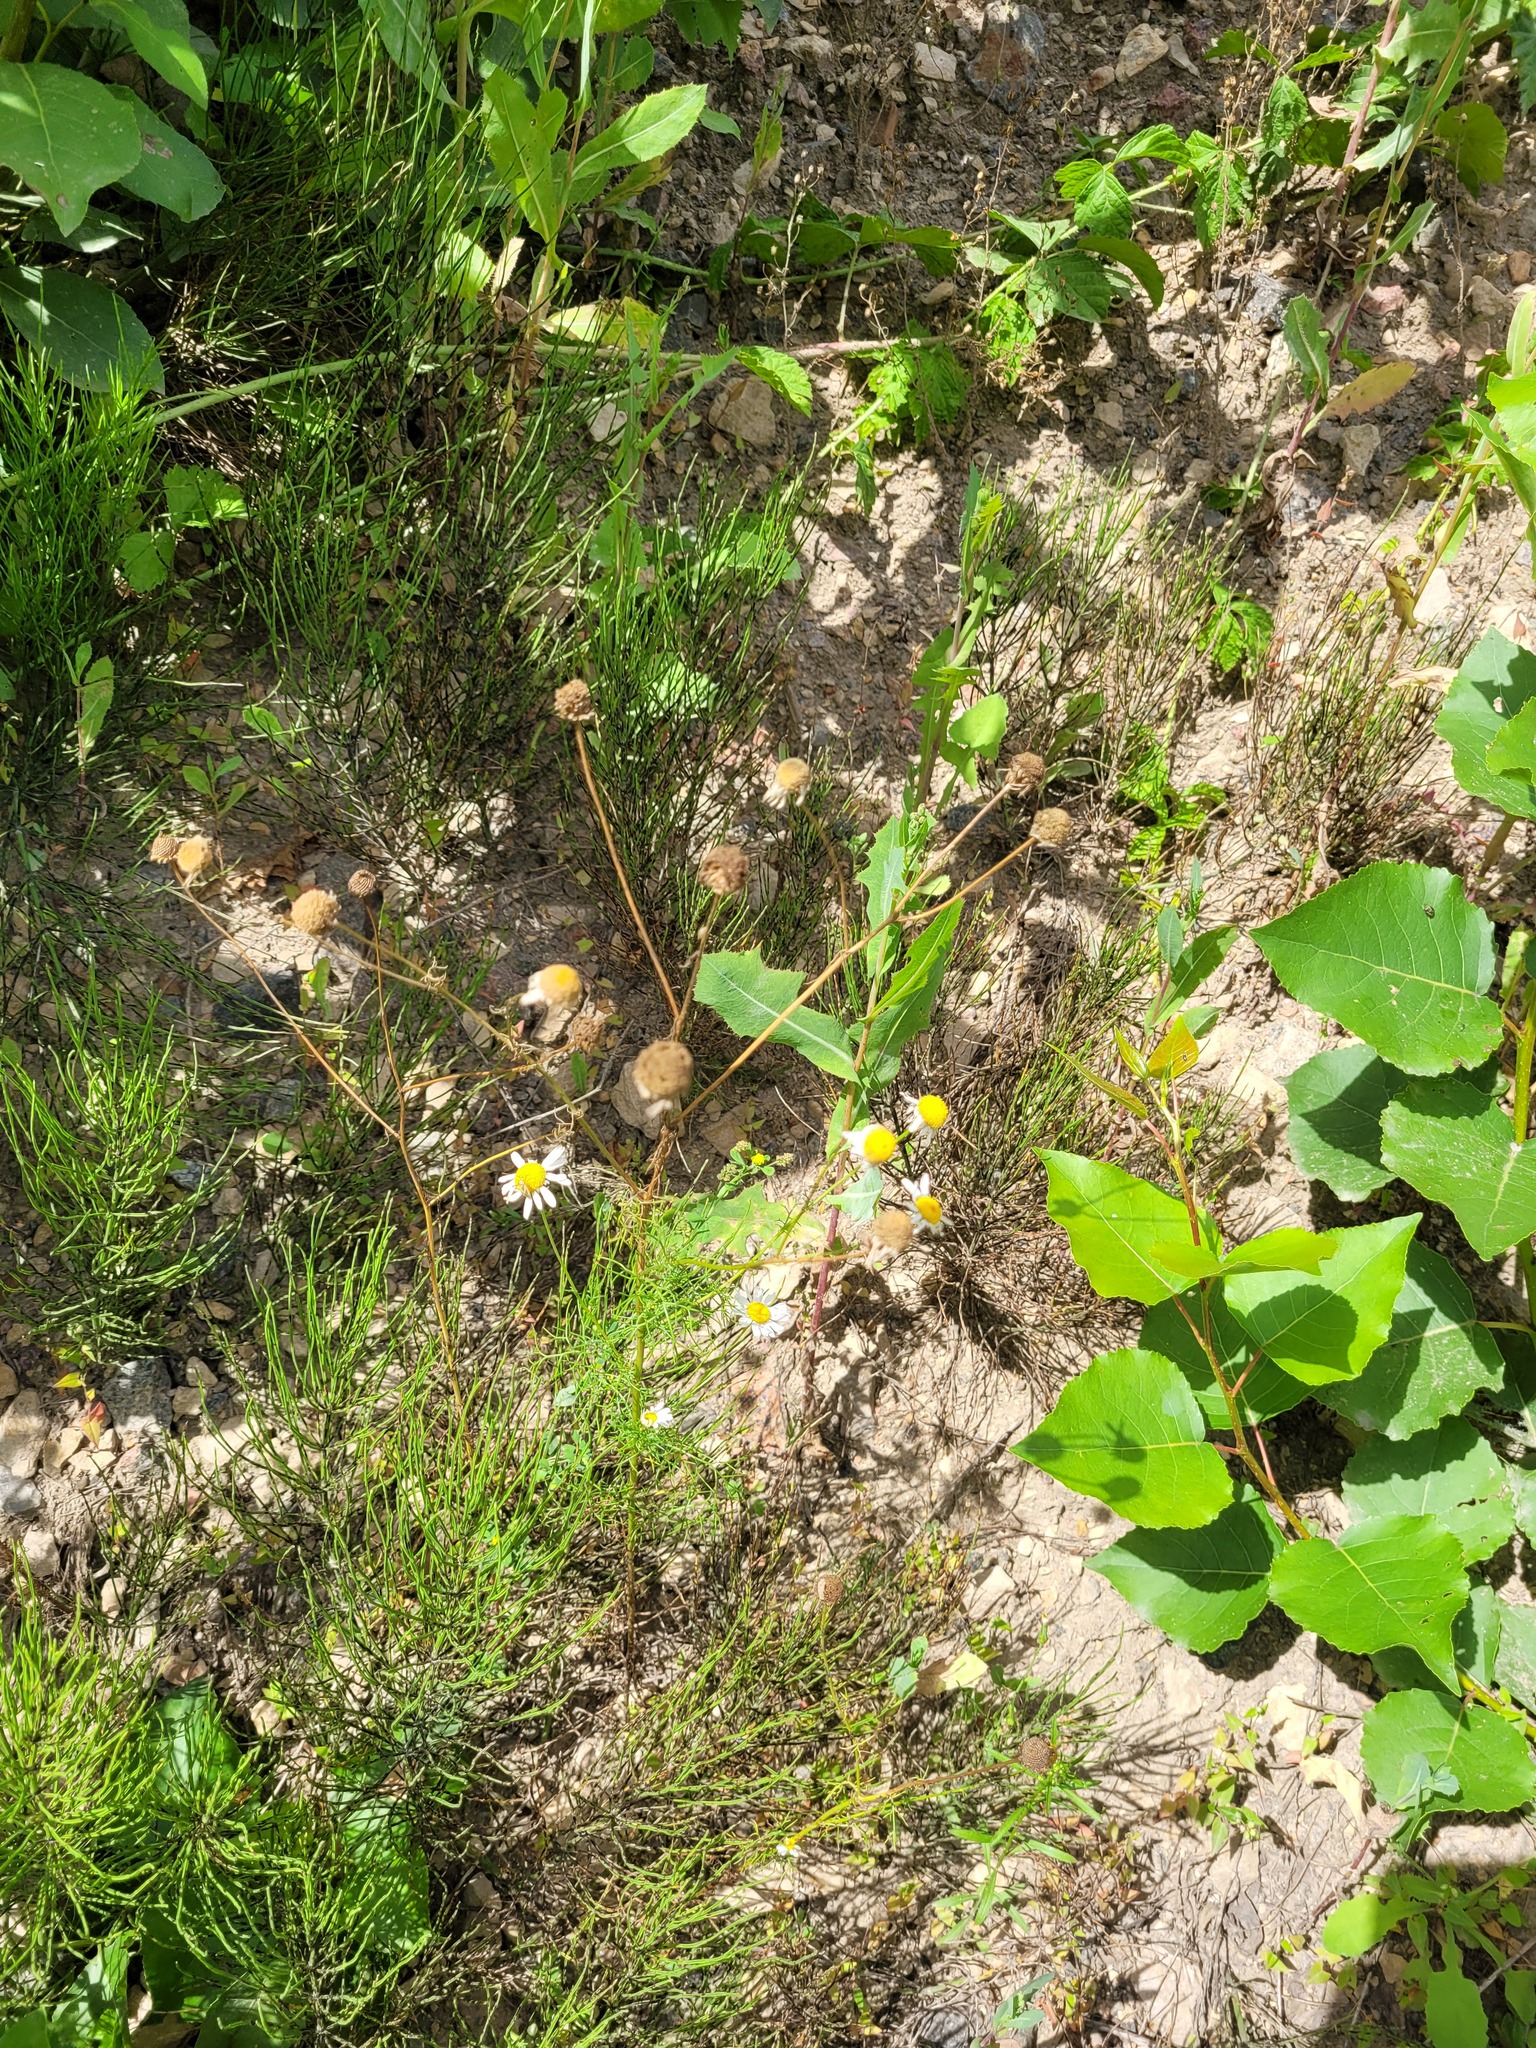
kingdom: Plantae
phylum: Tracheophyta
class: Magnoliopsida
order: Asterales
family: Asteraceae
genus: Tripleurospermum
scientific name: Tripleurospermum inodorum
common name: Scentless mayweed
